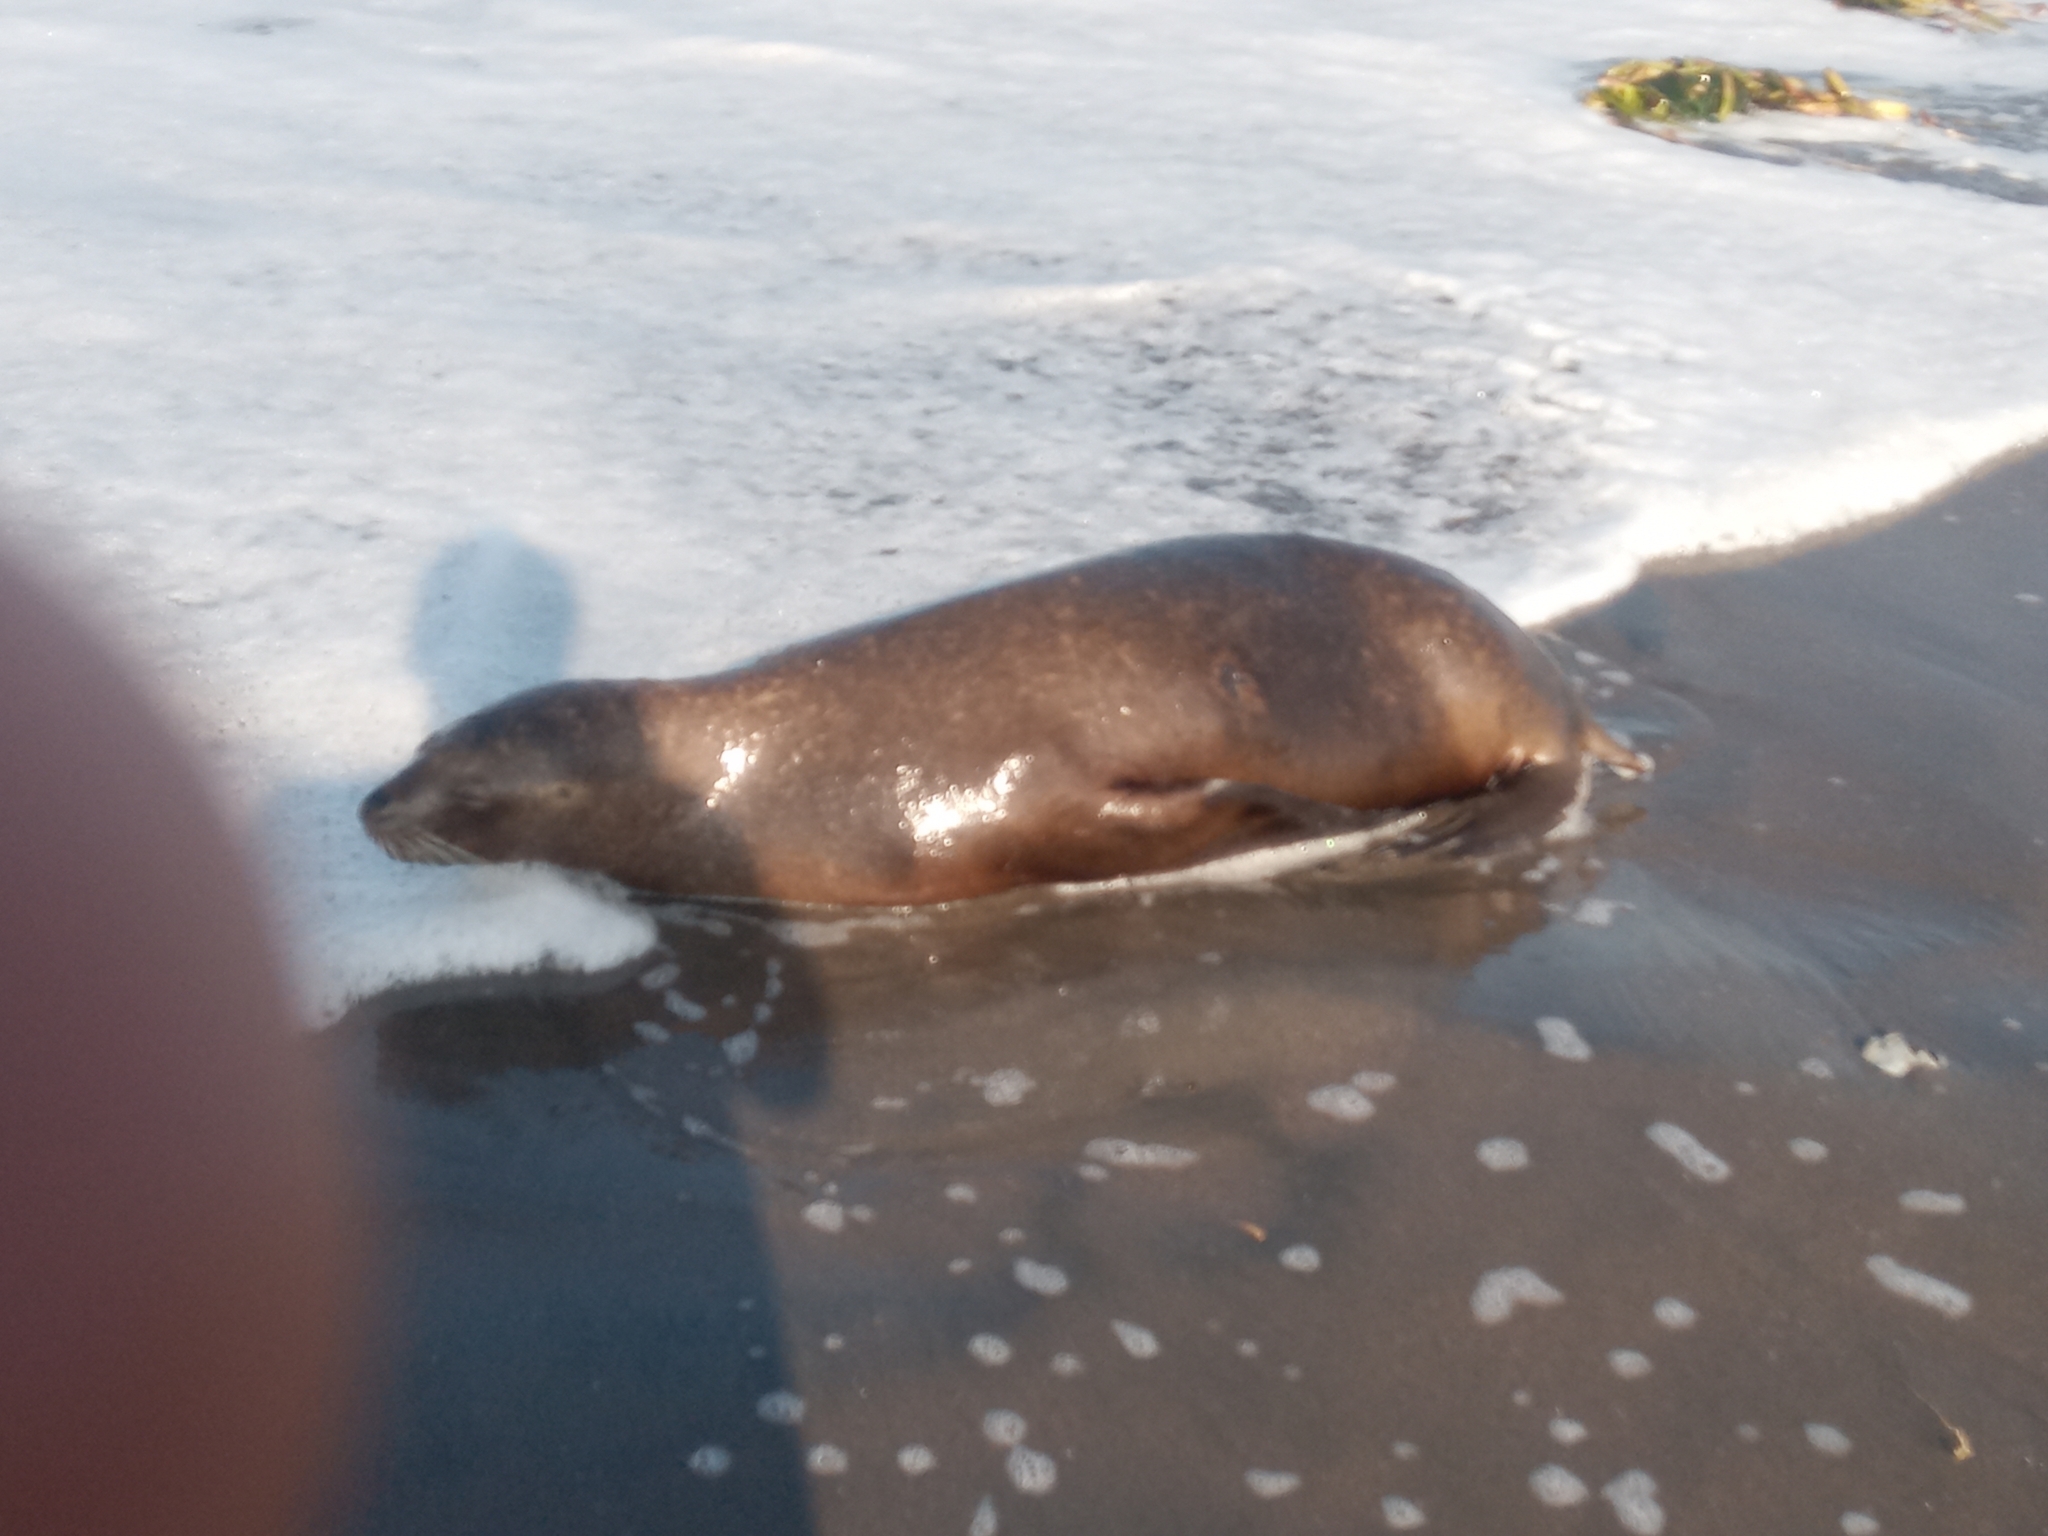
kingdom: Animalia
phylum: Chordata
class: Mammalia
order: Carnivora
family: Otariidae
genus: Otaria
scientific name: Otaria byronia
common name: South american sea lion
